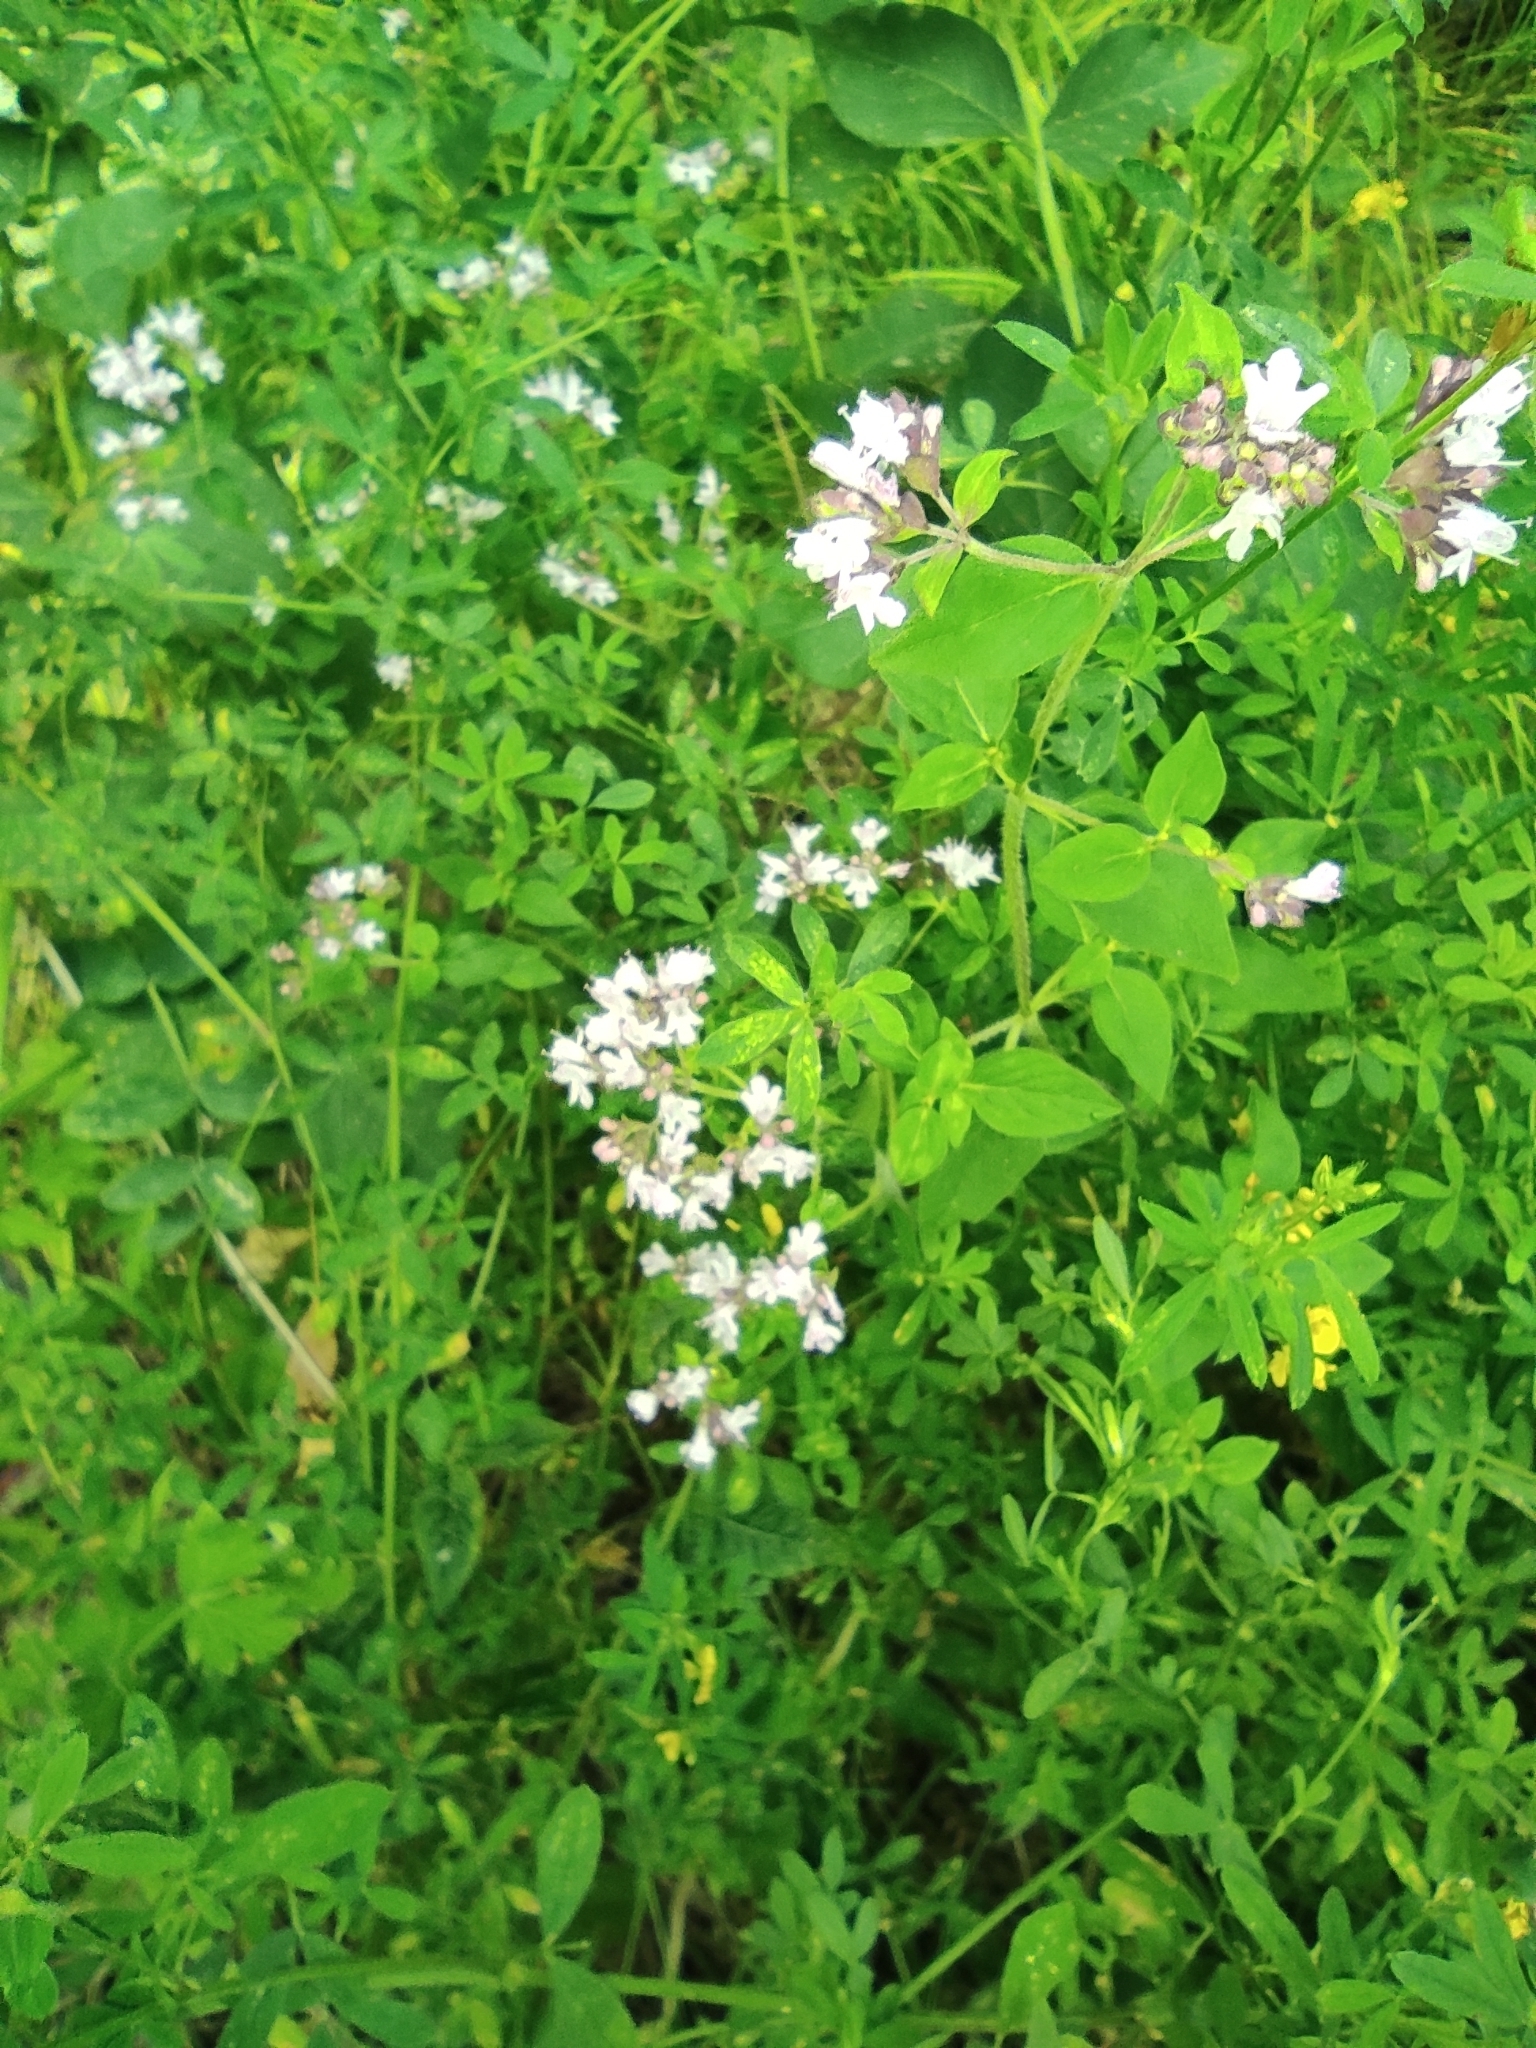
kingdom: Plantae
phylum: Tracheophyta
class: Magnoliopsida
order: Lamiales
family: Lamiaceae
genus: Origanum
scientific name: Origanum vulgare
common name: Wild marjoram
